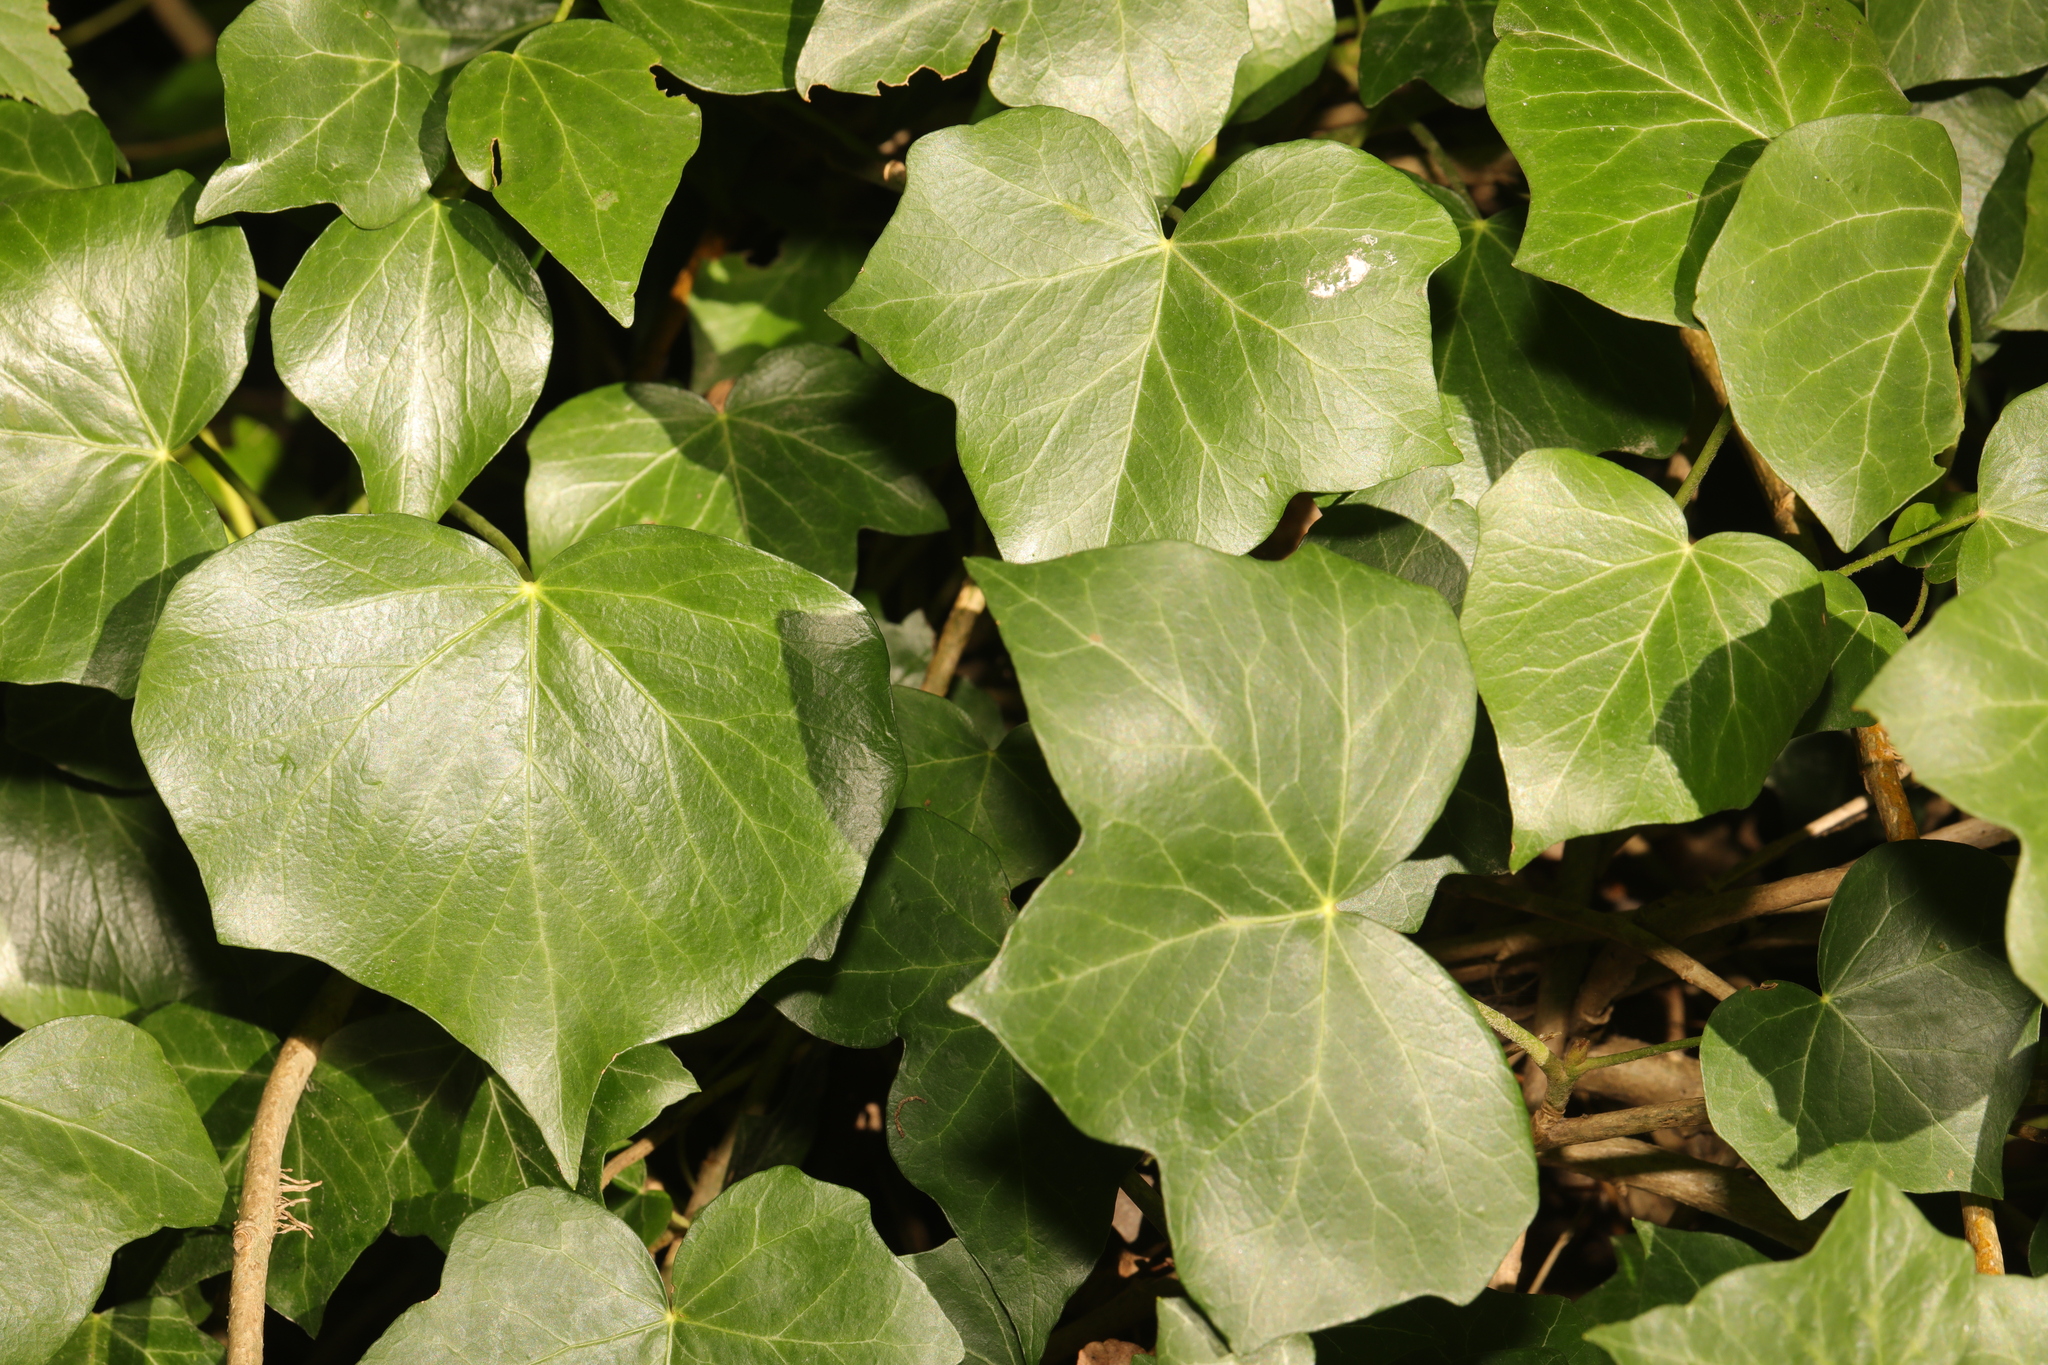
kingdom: Plantae
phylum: Tracheophyta
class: Magnoliopsida
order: Apiales
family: Araliaceae
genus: Hedera
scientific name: Hedera helix
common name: Ivy
